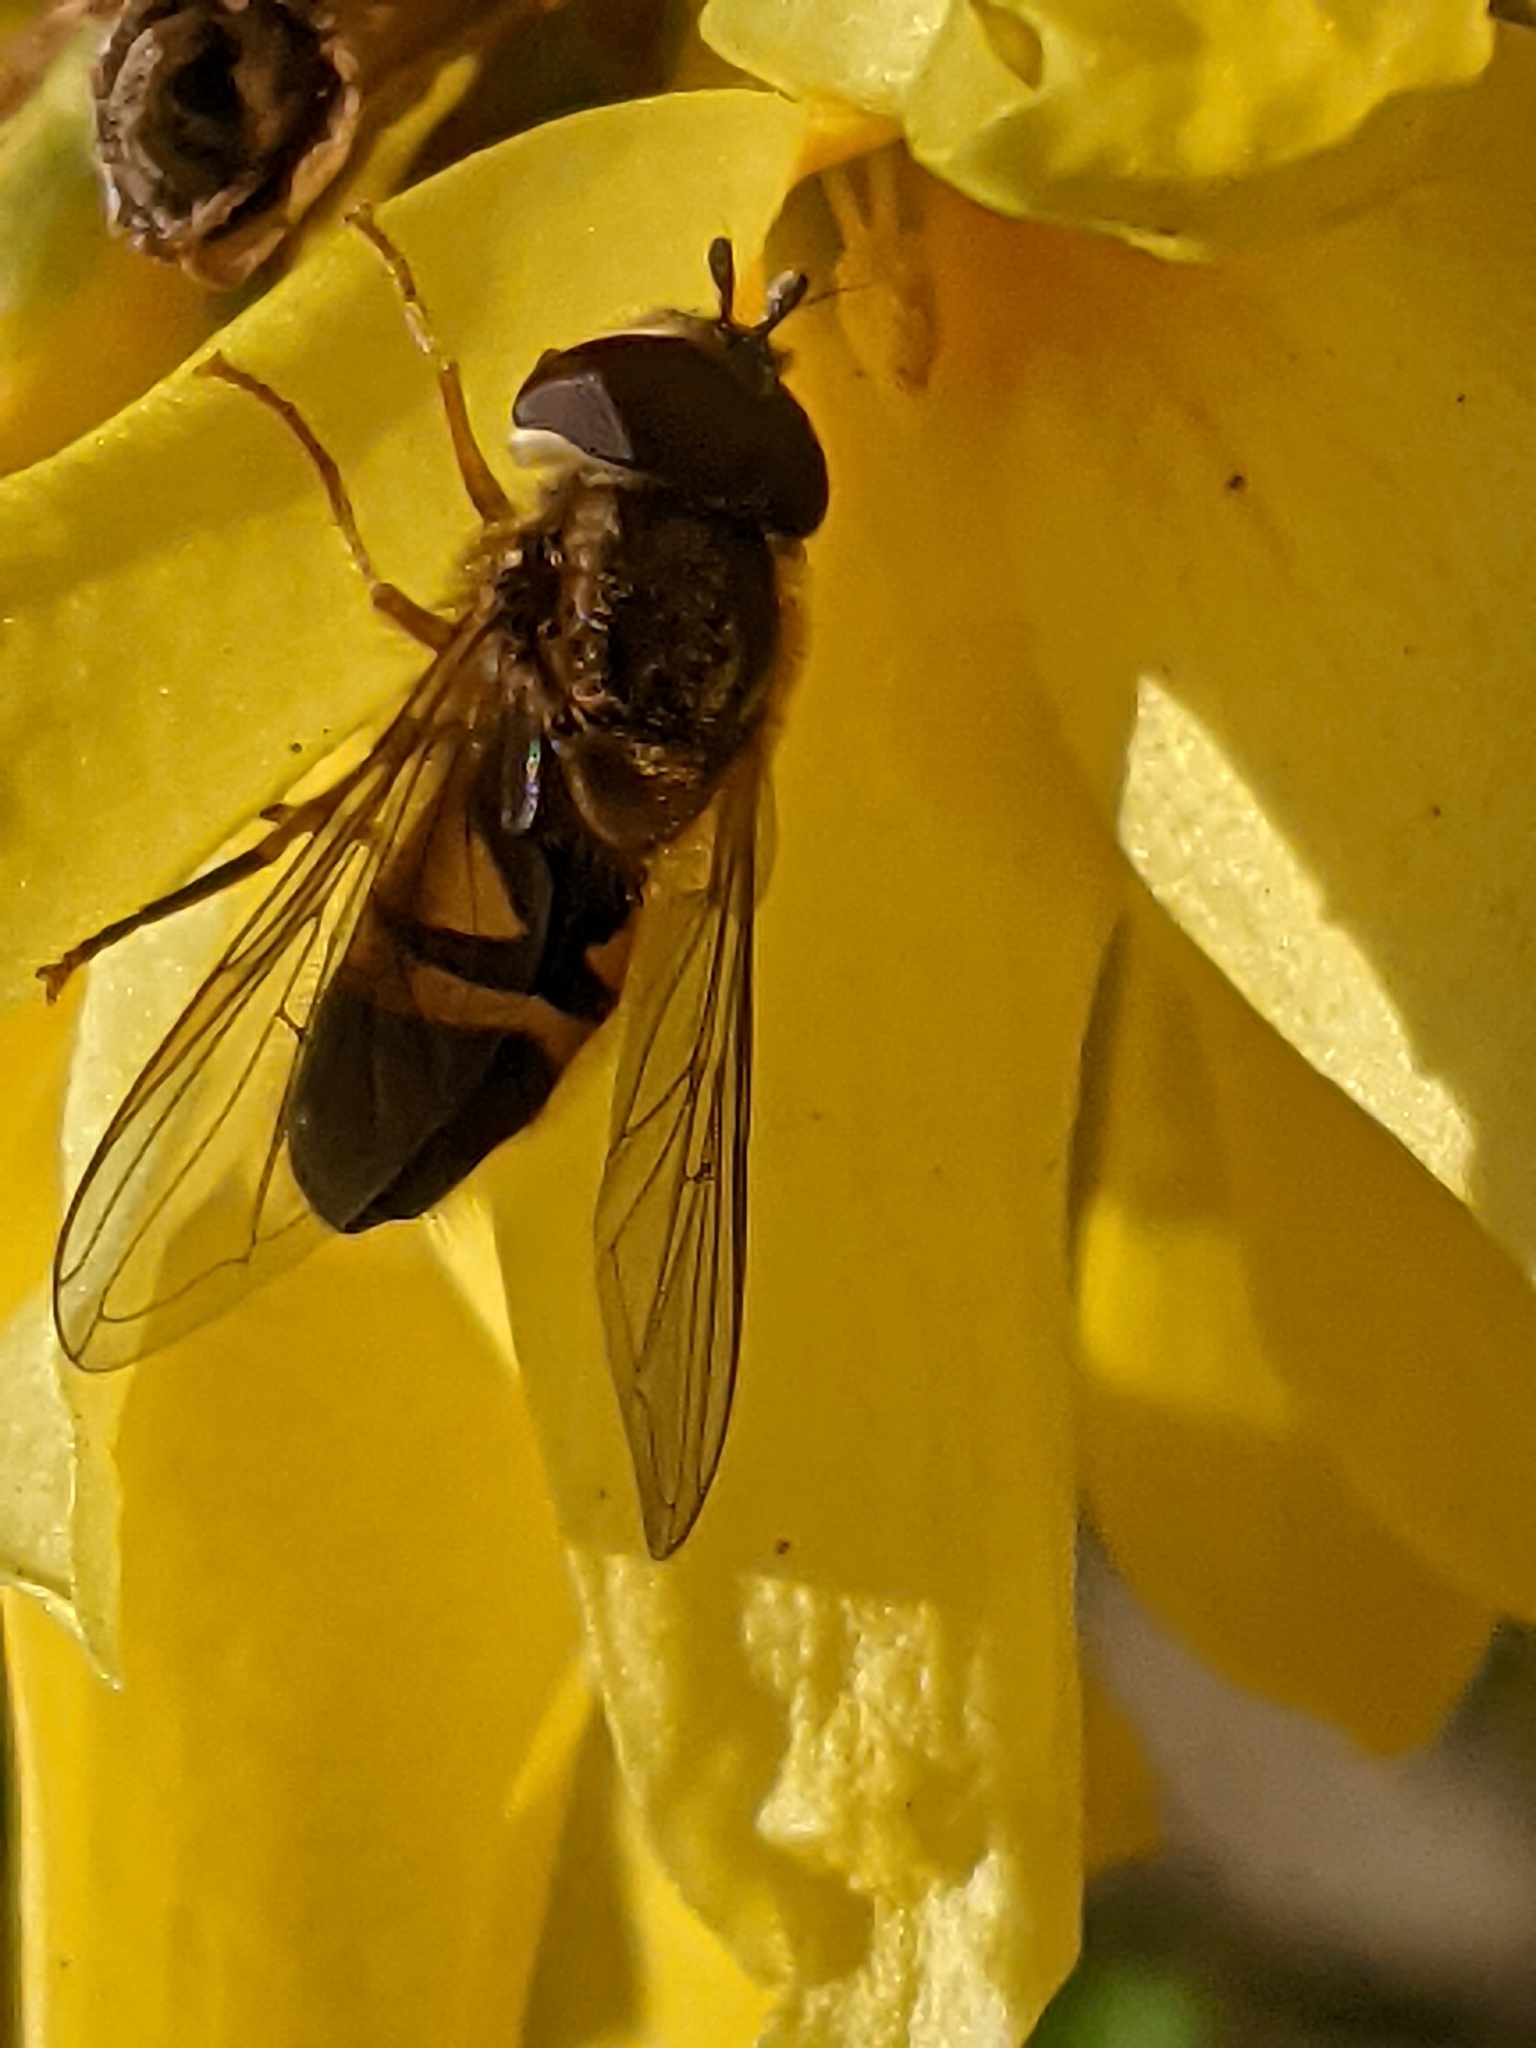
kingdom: Animalia
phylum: Arthropoda
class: Insecta
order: Diptera
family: Syrphidae
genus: Epistrophe
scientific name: Epistrophe eligans
